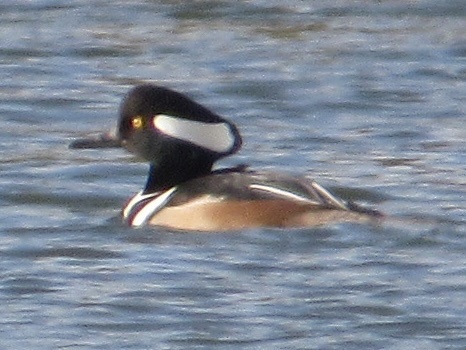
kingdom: Animalia
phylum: Chordata
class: Aves
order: Anseriformes
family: Anatidae
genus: Lophodytes
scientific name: Lophodytes cucullatus
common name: Hooded merganser
